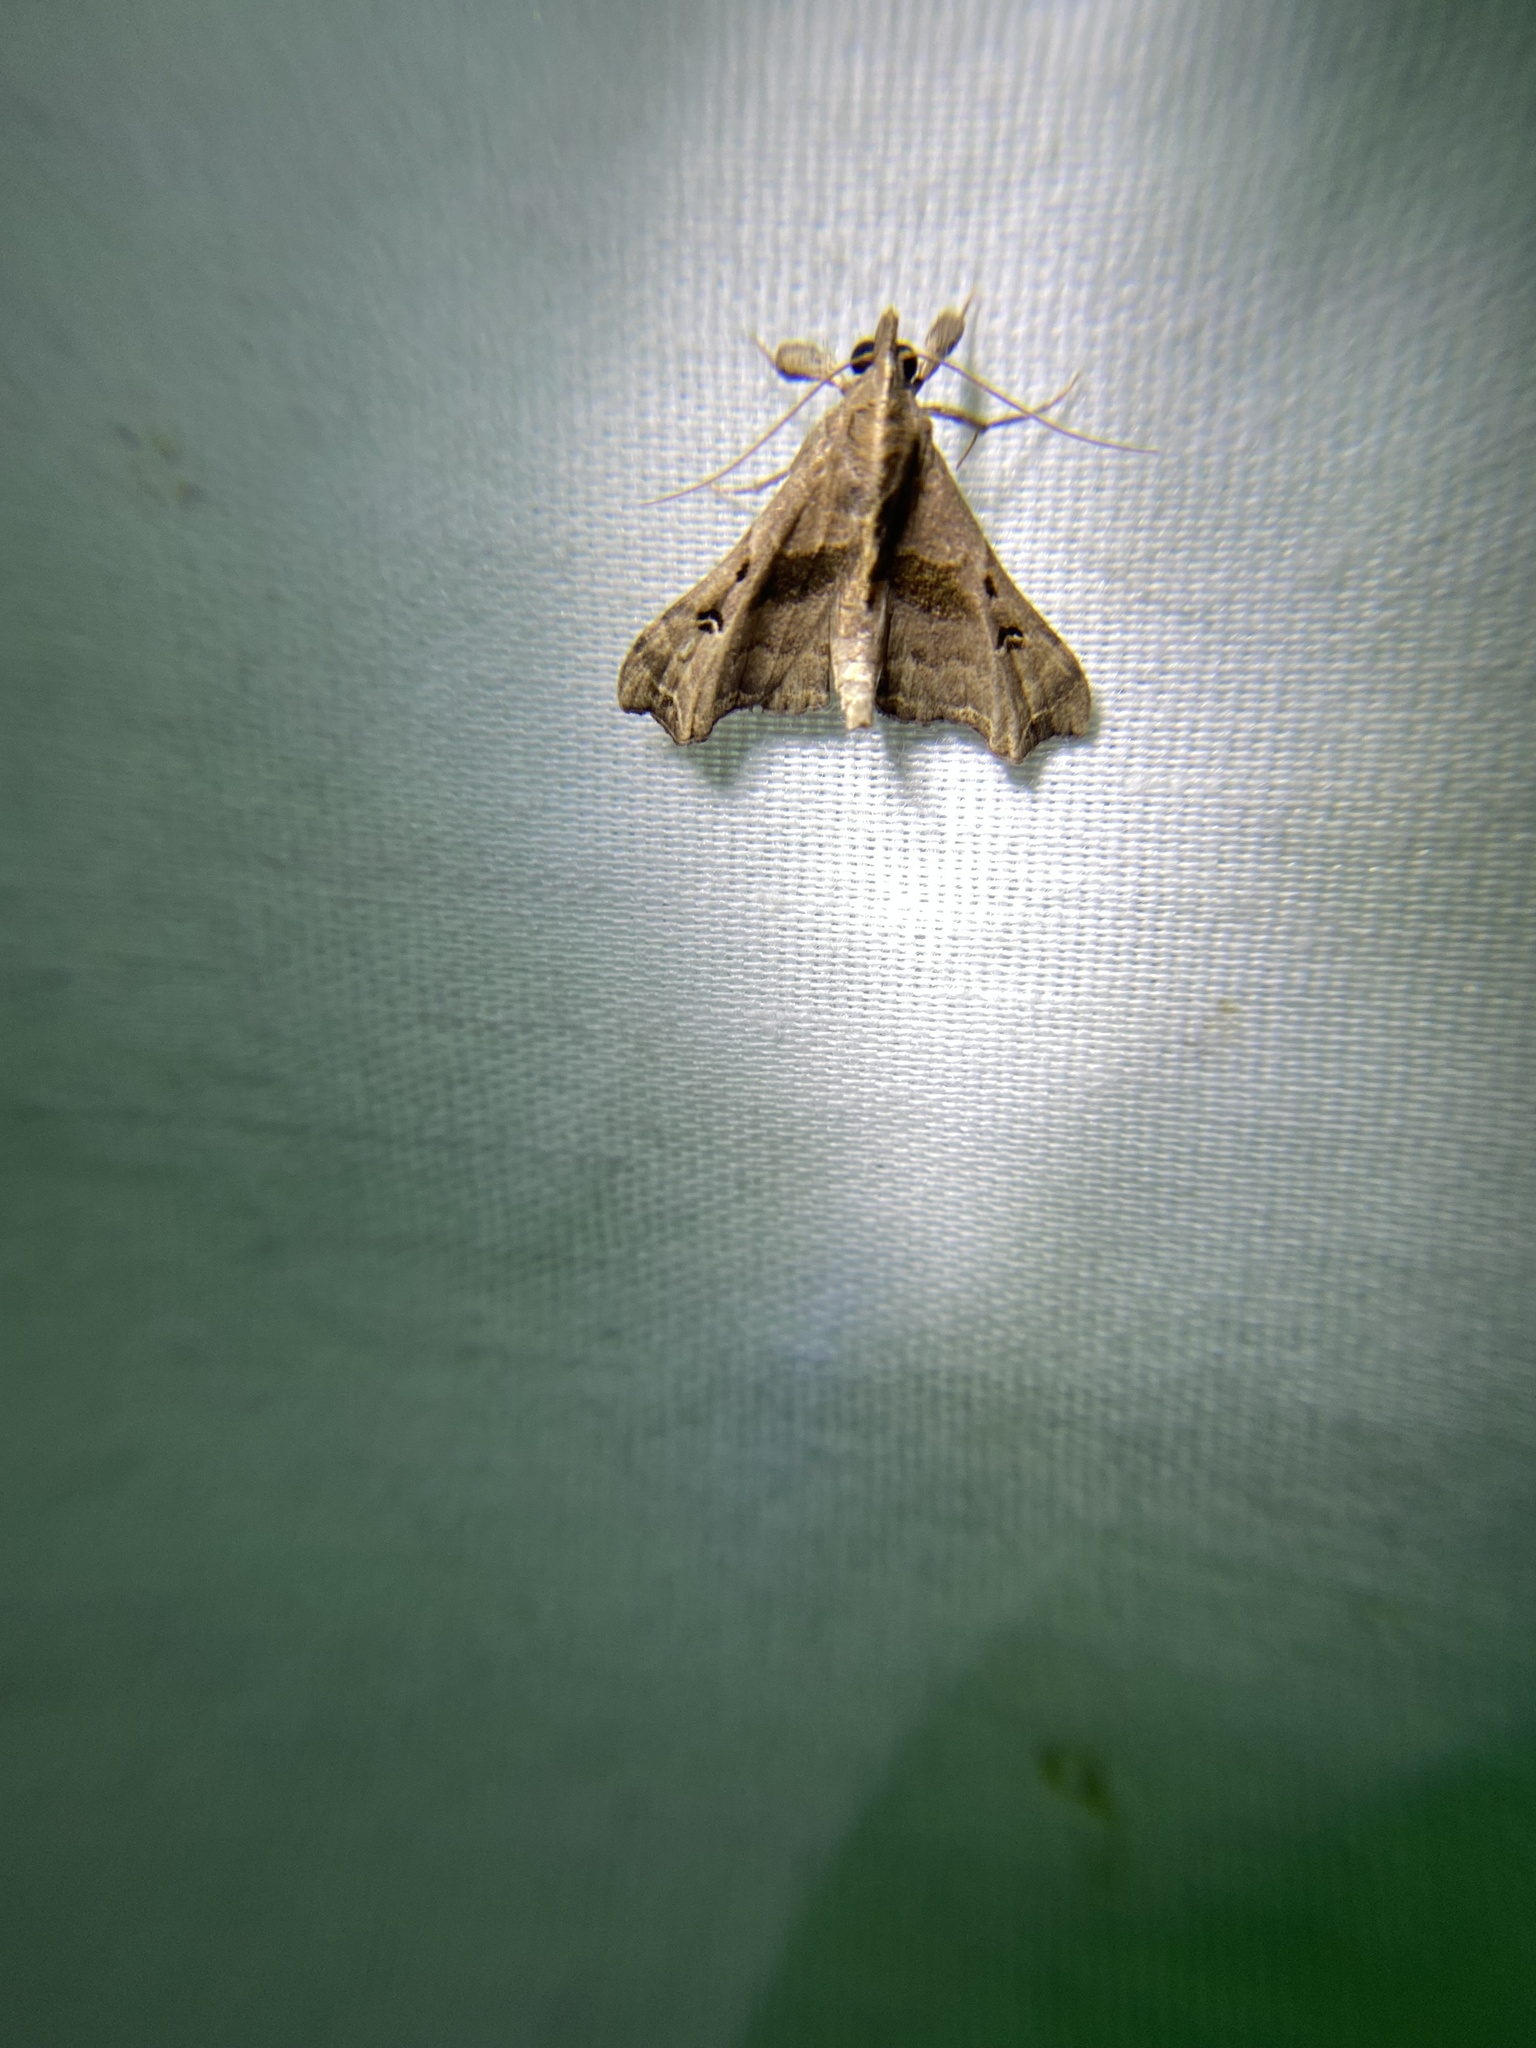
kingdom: Animalia
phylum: Arthropoda
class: Insecta
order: Lepidoptera
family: Erebidae
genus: Palthis
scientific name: Palthis asopialis
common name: Faint-spotted palthis moth
